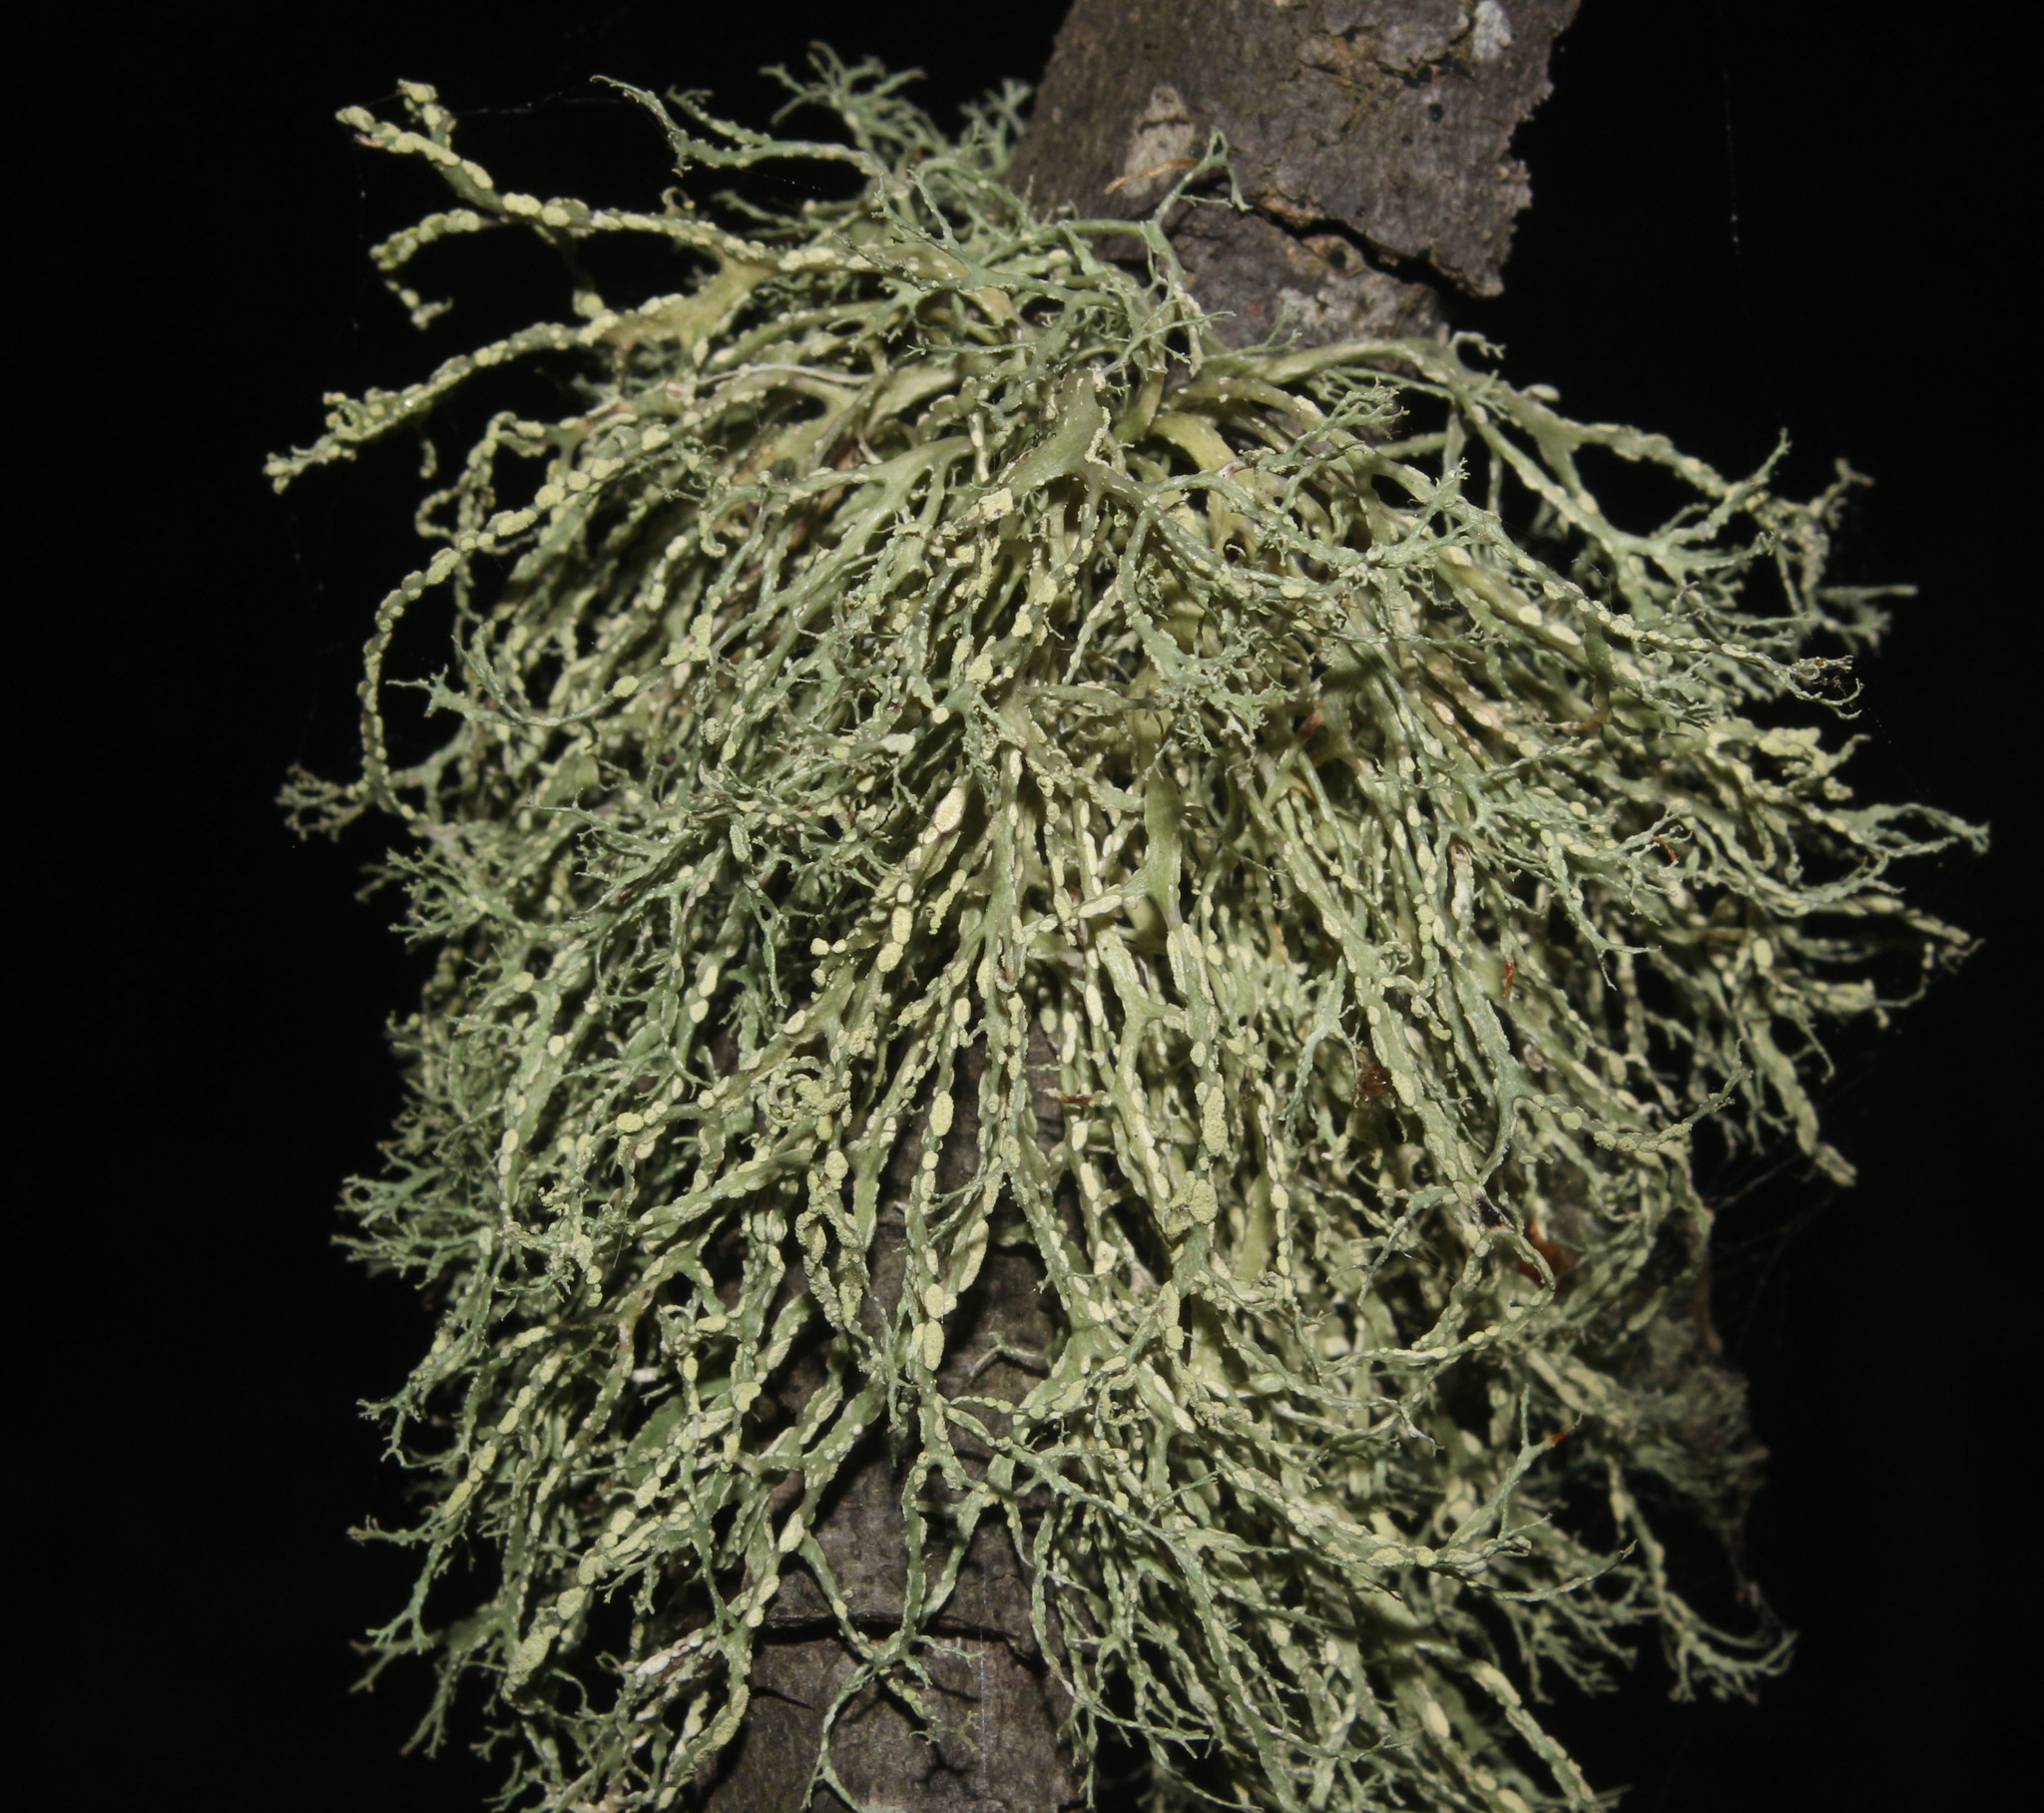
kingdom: Fungi
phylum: Ascomycota
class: Lecanoromycetes
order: Lecanorales
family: Ramalinaceae
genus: Ramalina
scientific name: Ramalina farinacea
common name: Farinose cartilage lichen
